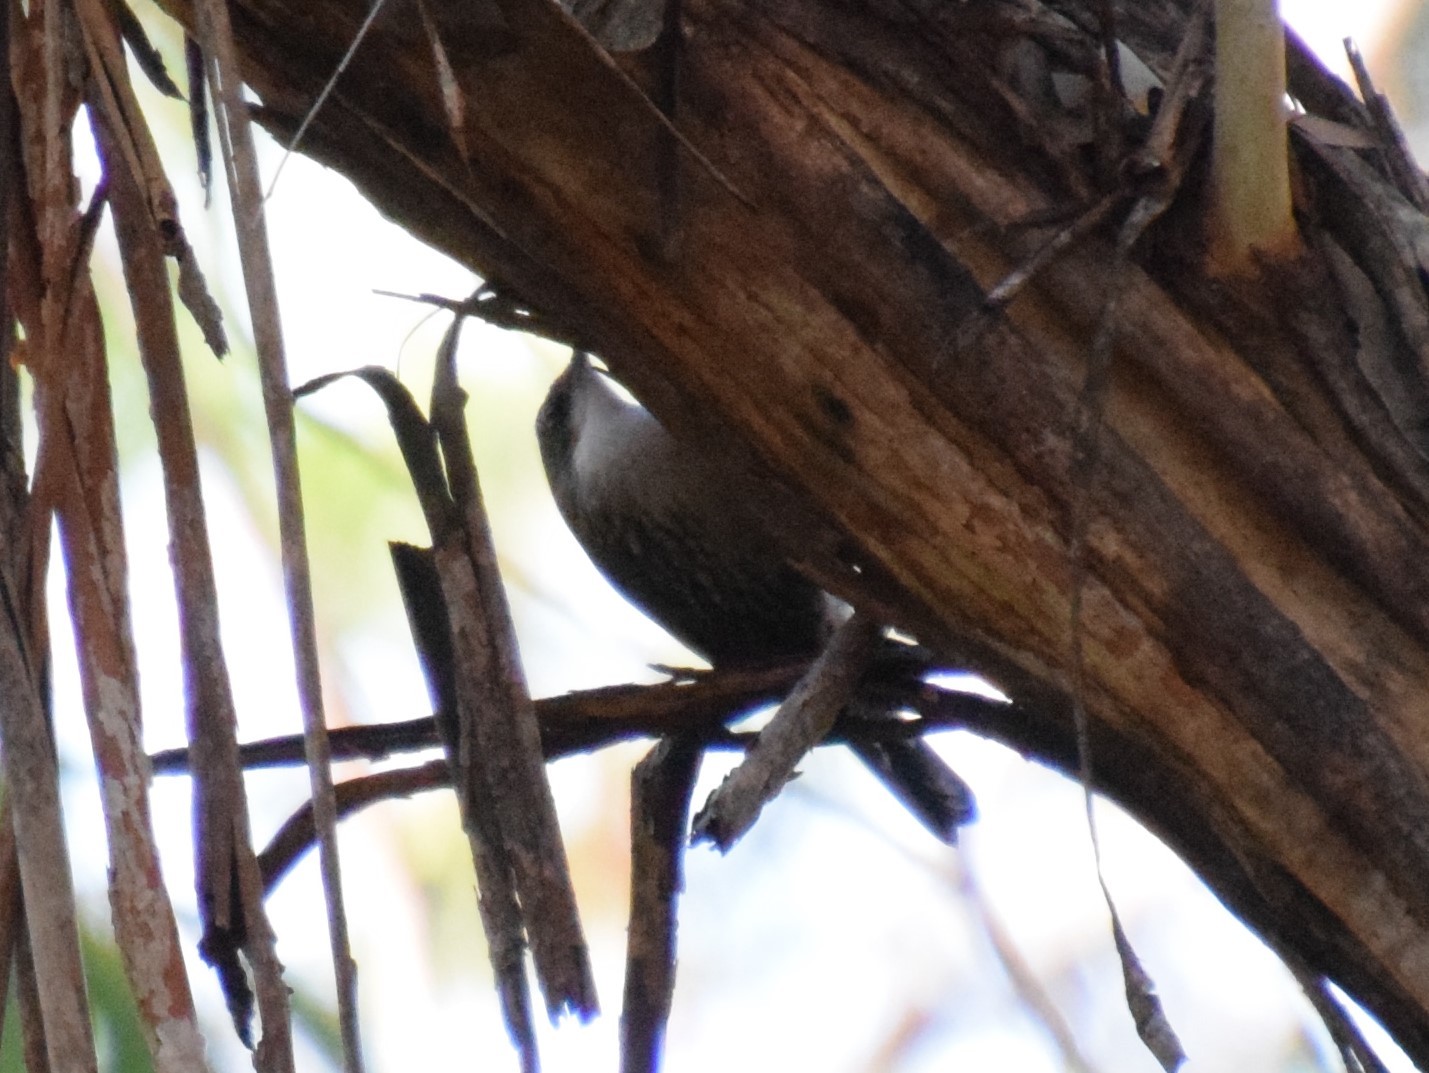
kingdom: Animalia
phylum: Chordata
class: Aves
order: Passeriformes
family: Climacteridae
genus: Cormobates
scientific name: Cormobates leucophaea
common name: White-throated treecreeper
